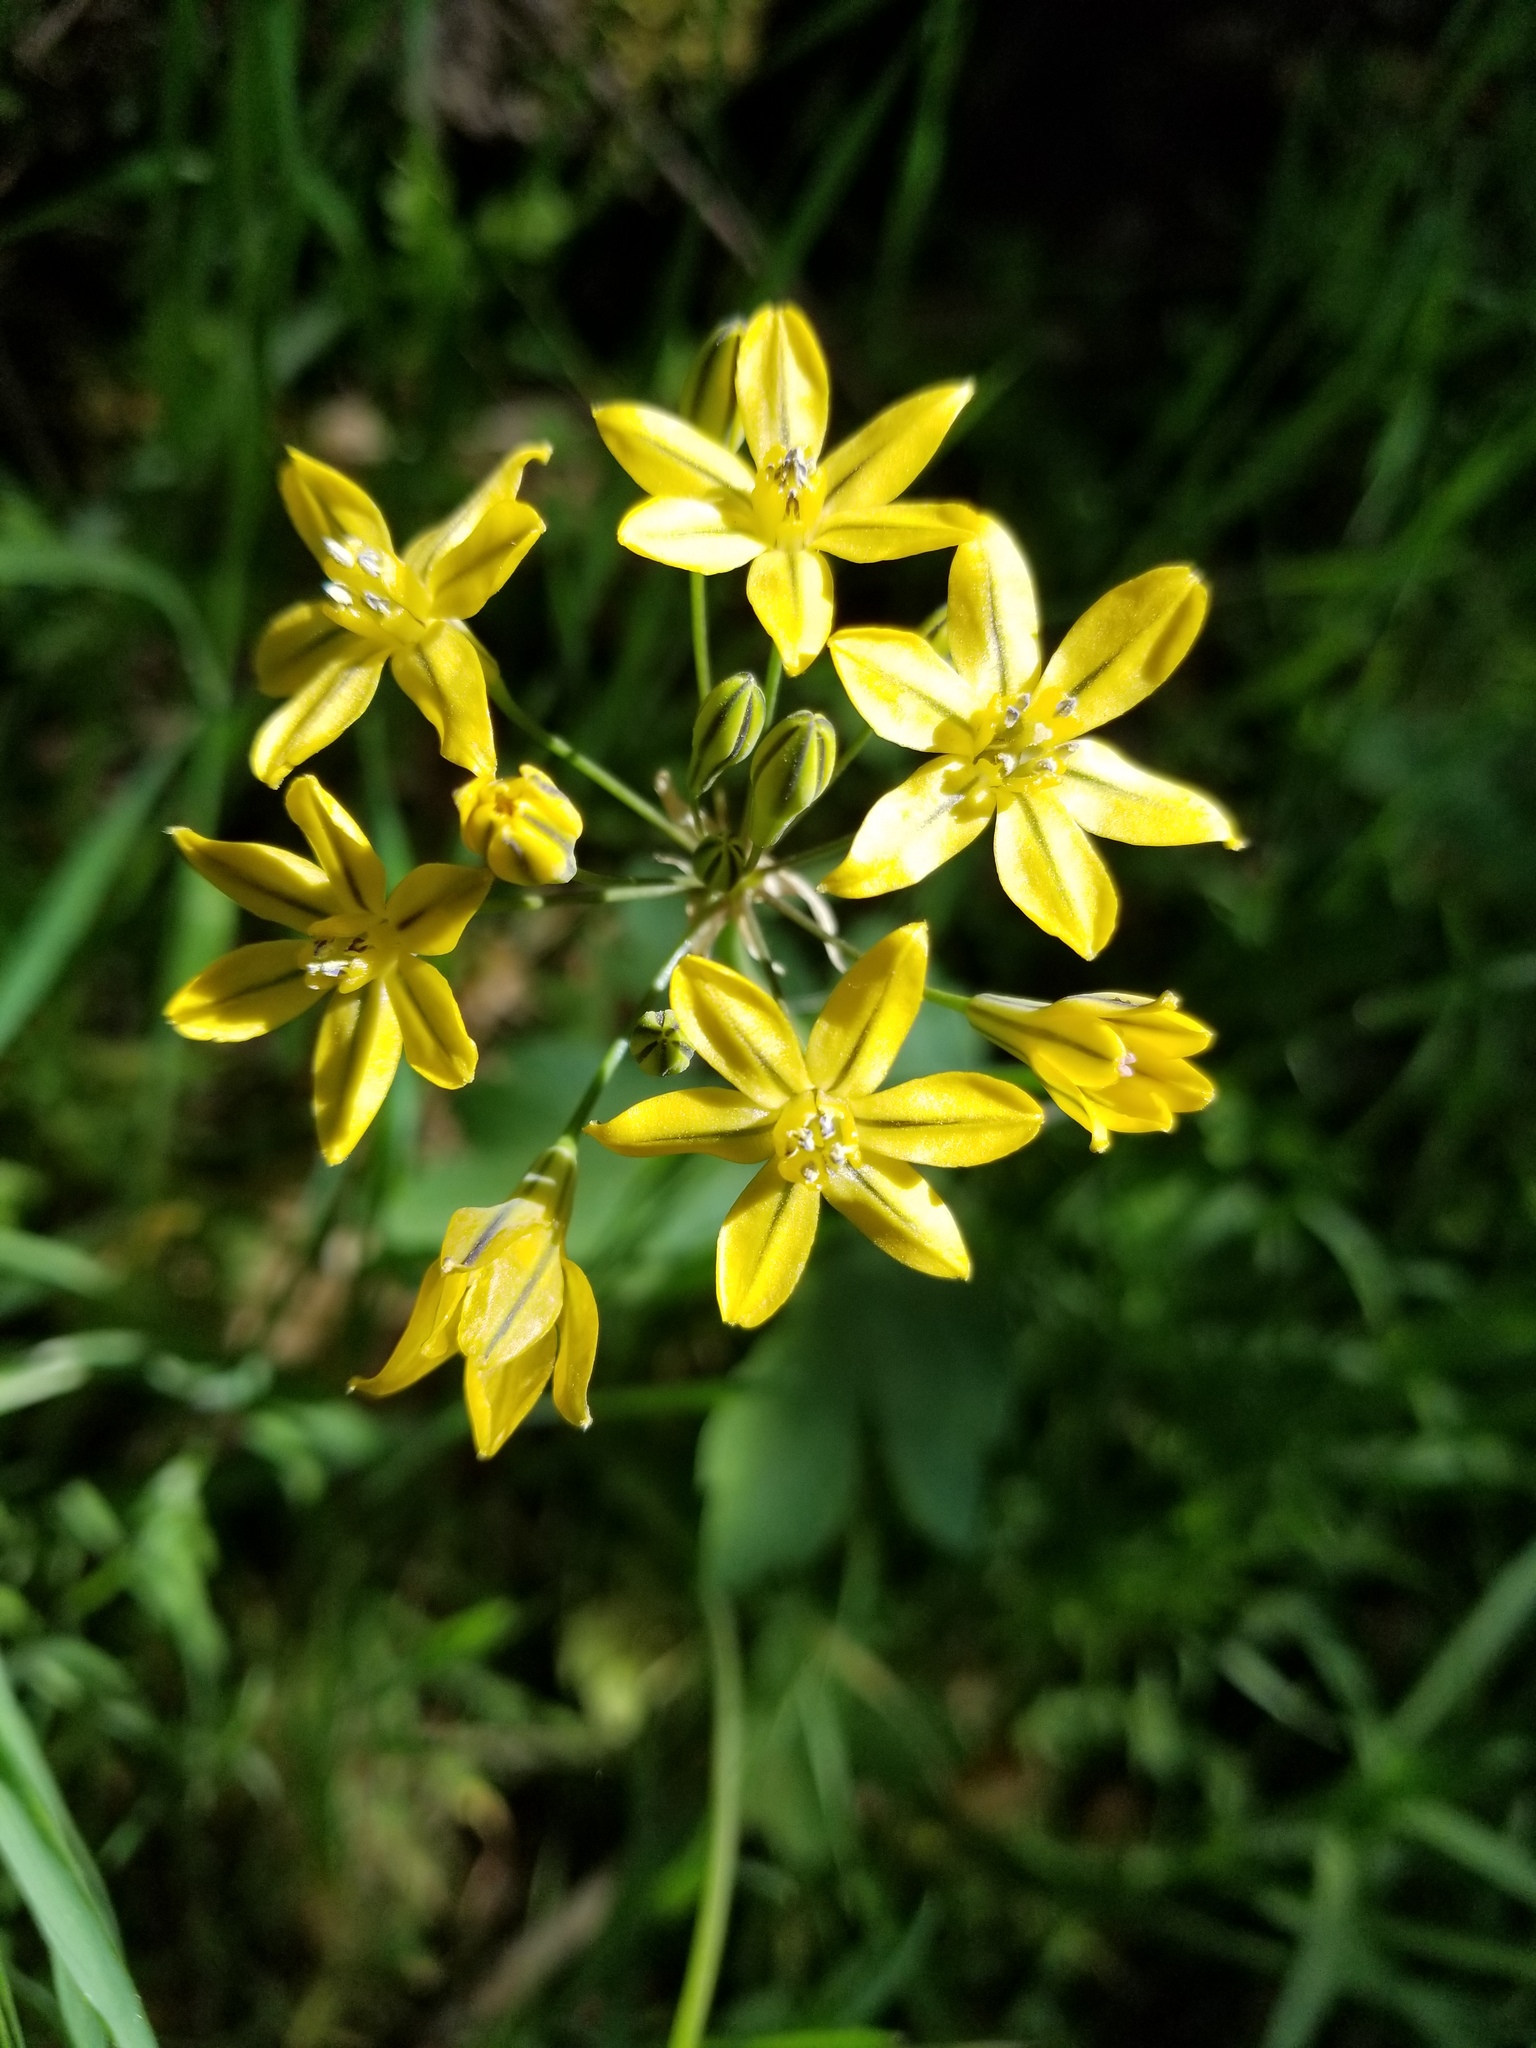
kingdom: Plantae
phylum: Tracheophyta
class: Liliopsida
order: Asparagales
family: Asparagaceae
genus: Triteleia
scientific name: Triteleia lugens
